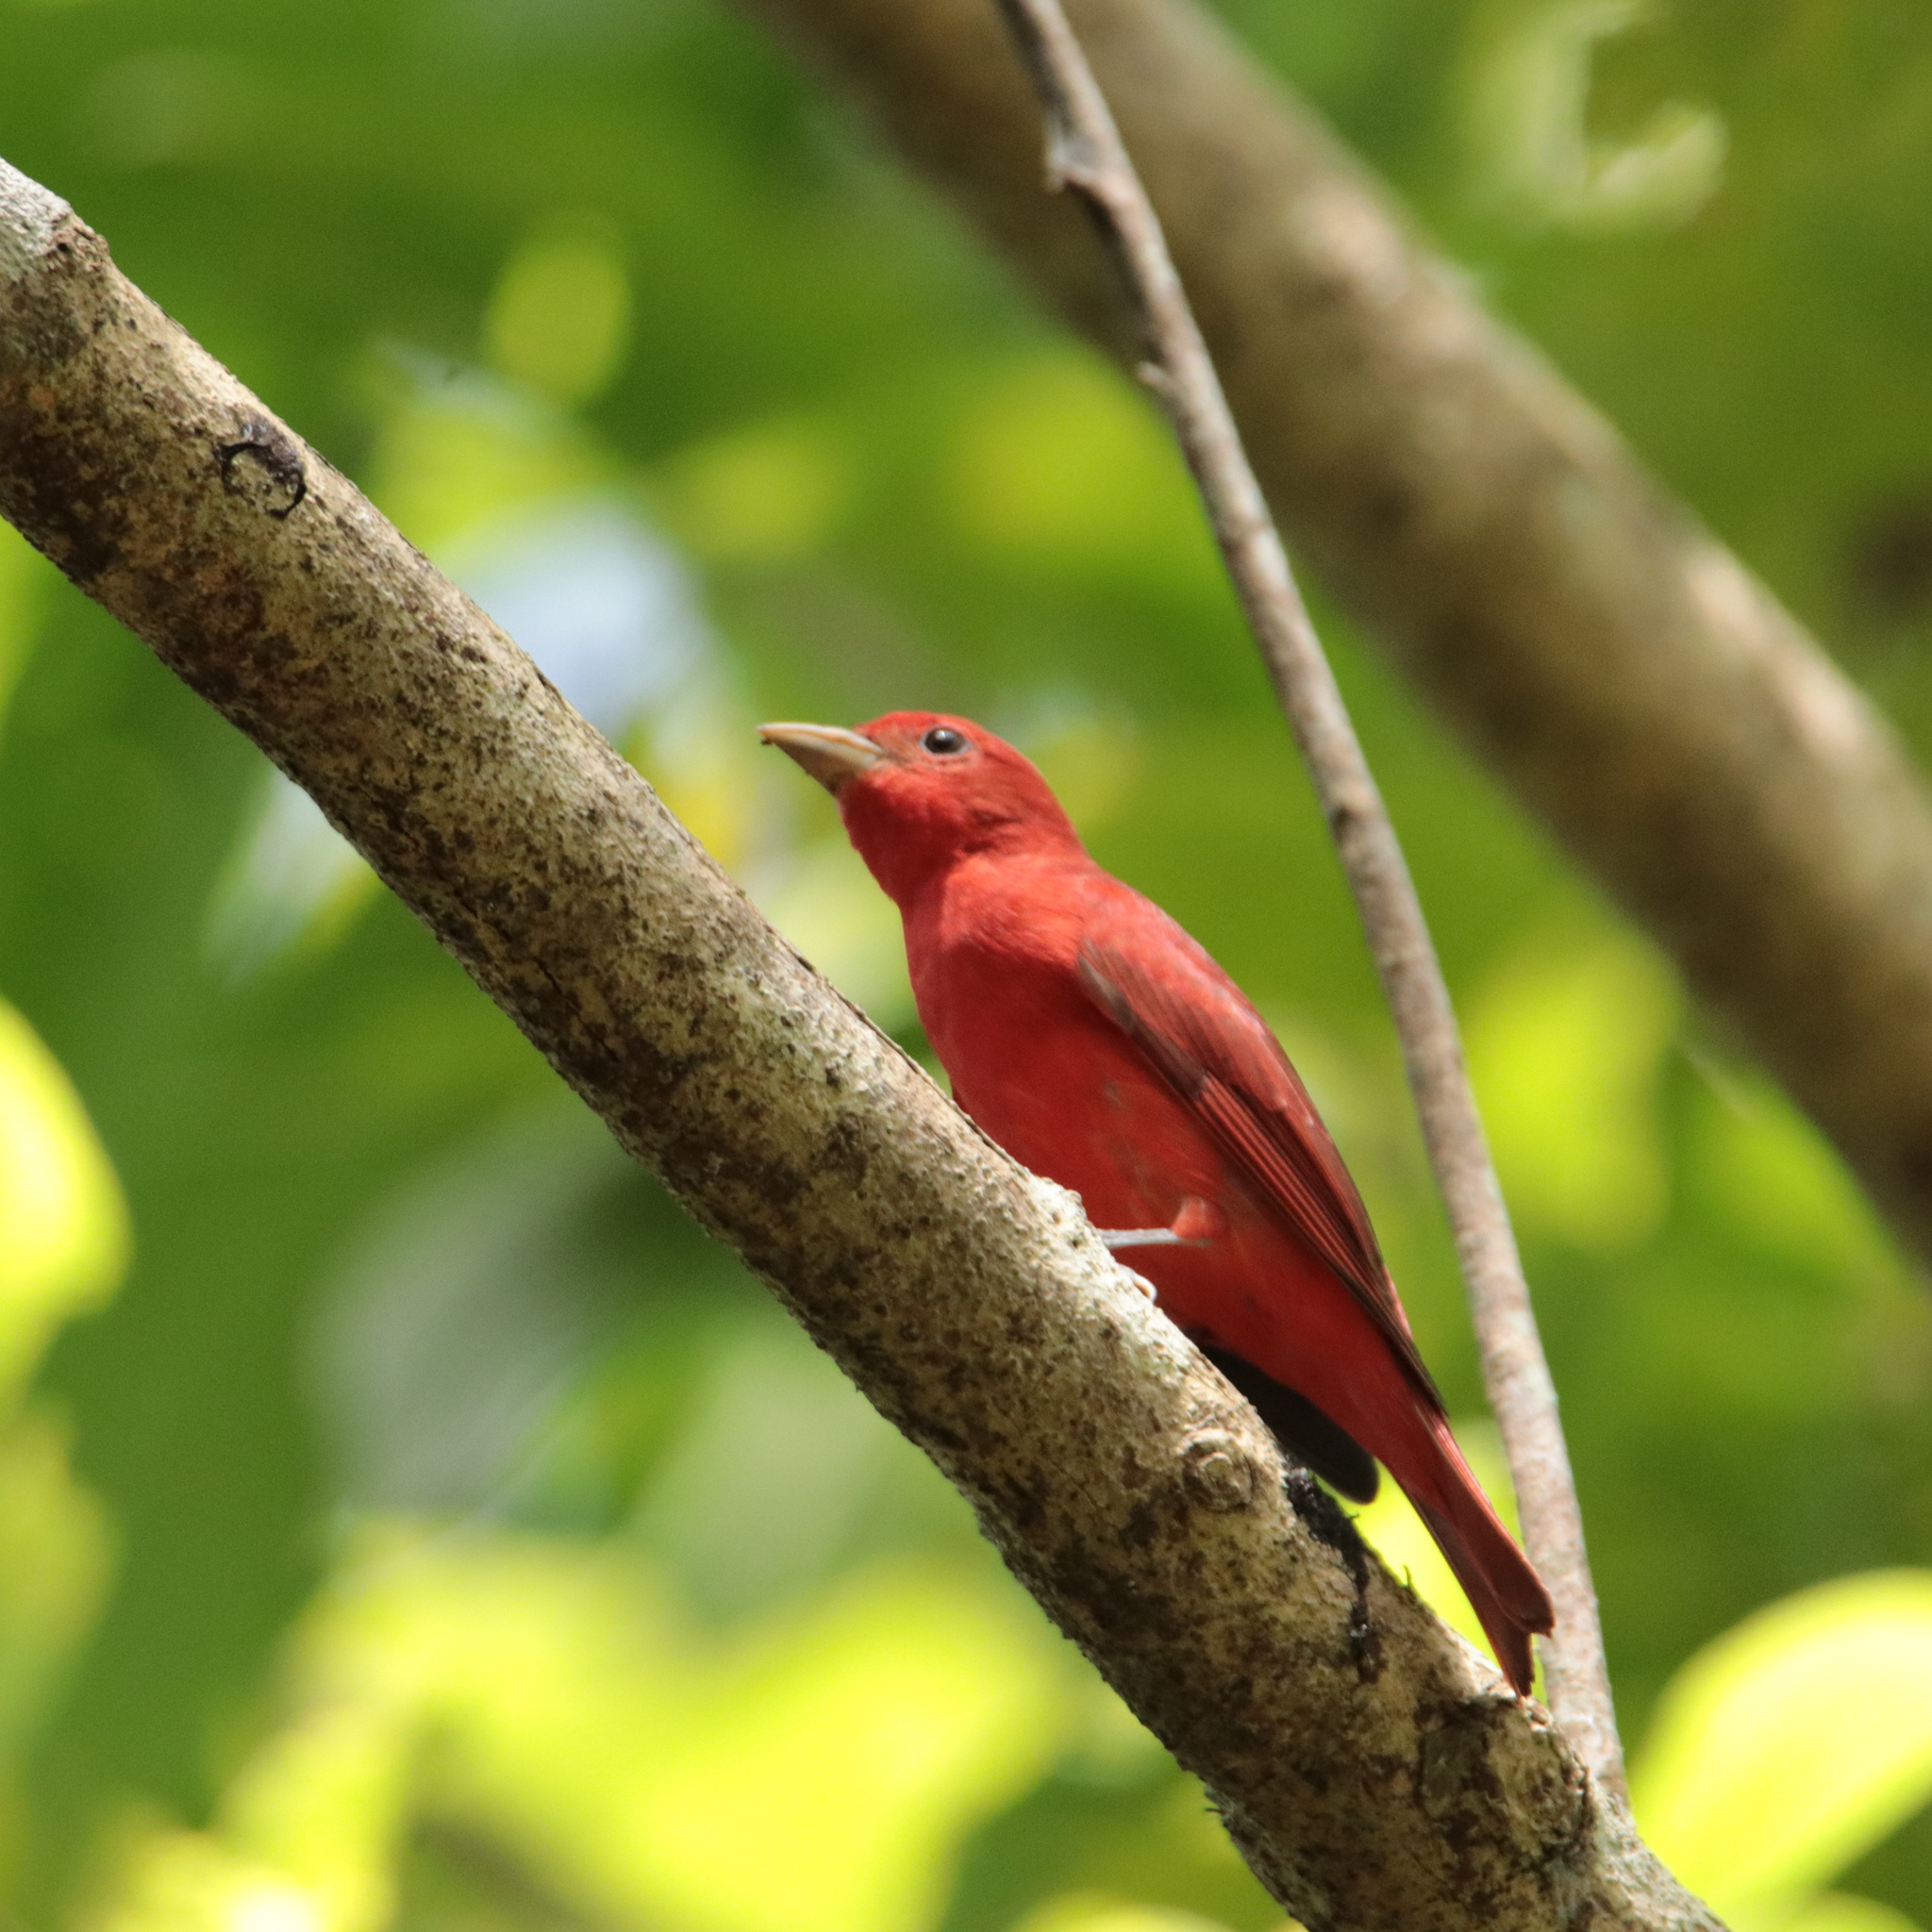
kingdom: Animalia
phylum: Chordata
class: Aves
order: Passeriformes
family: Cardinalidae
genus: Piranga
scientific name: Piranga rubra
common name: Summer tanager
